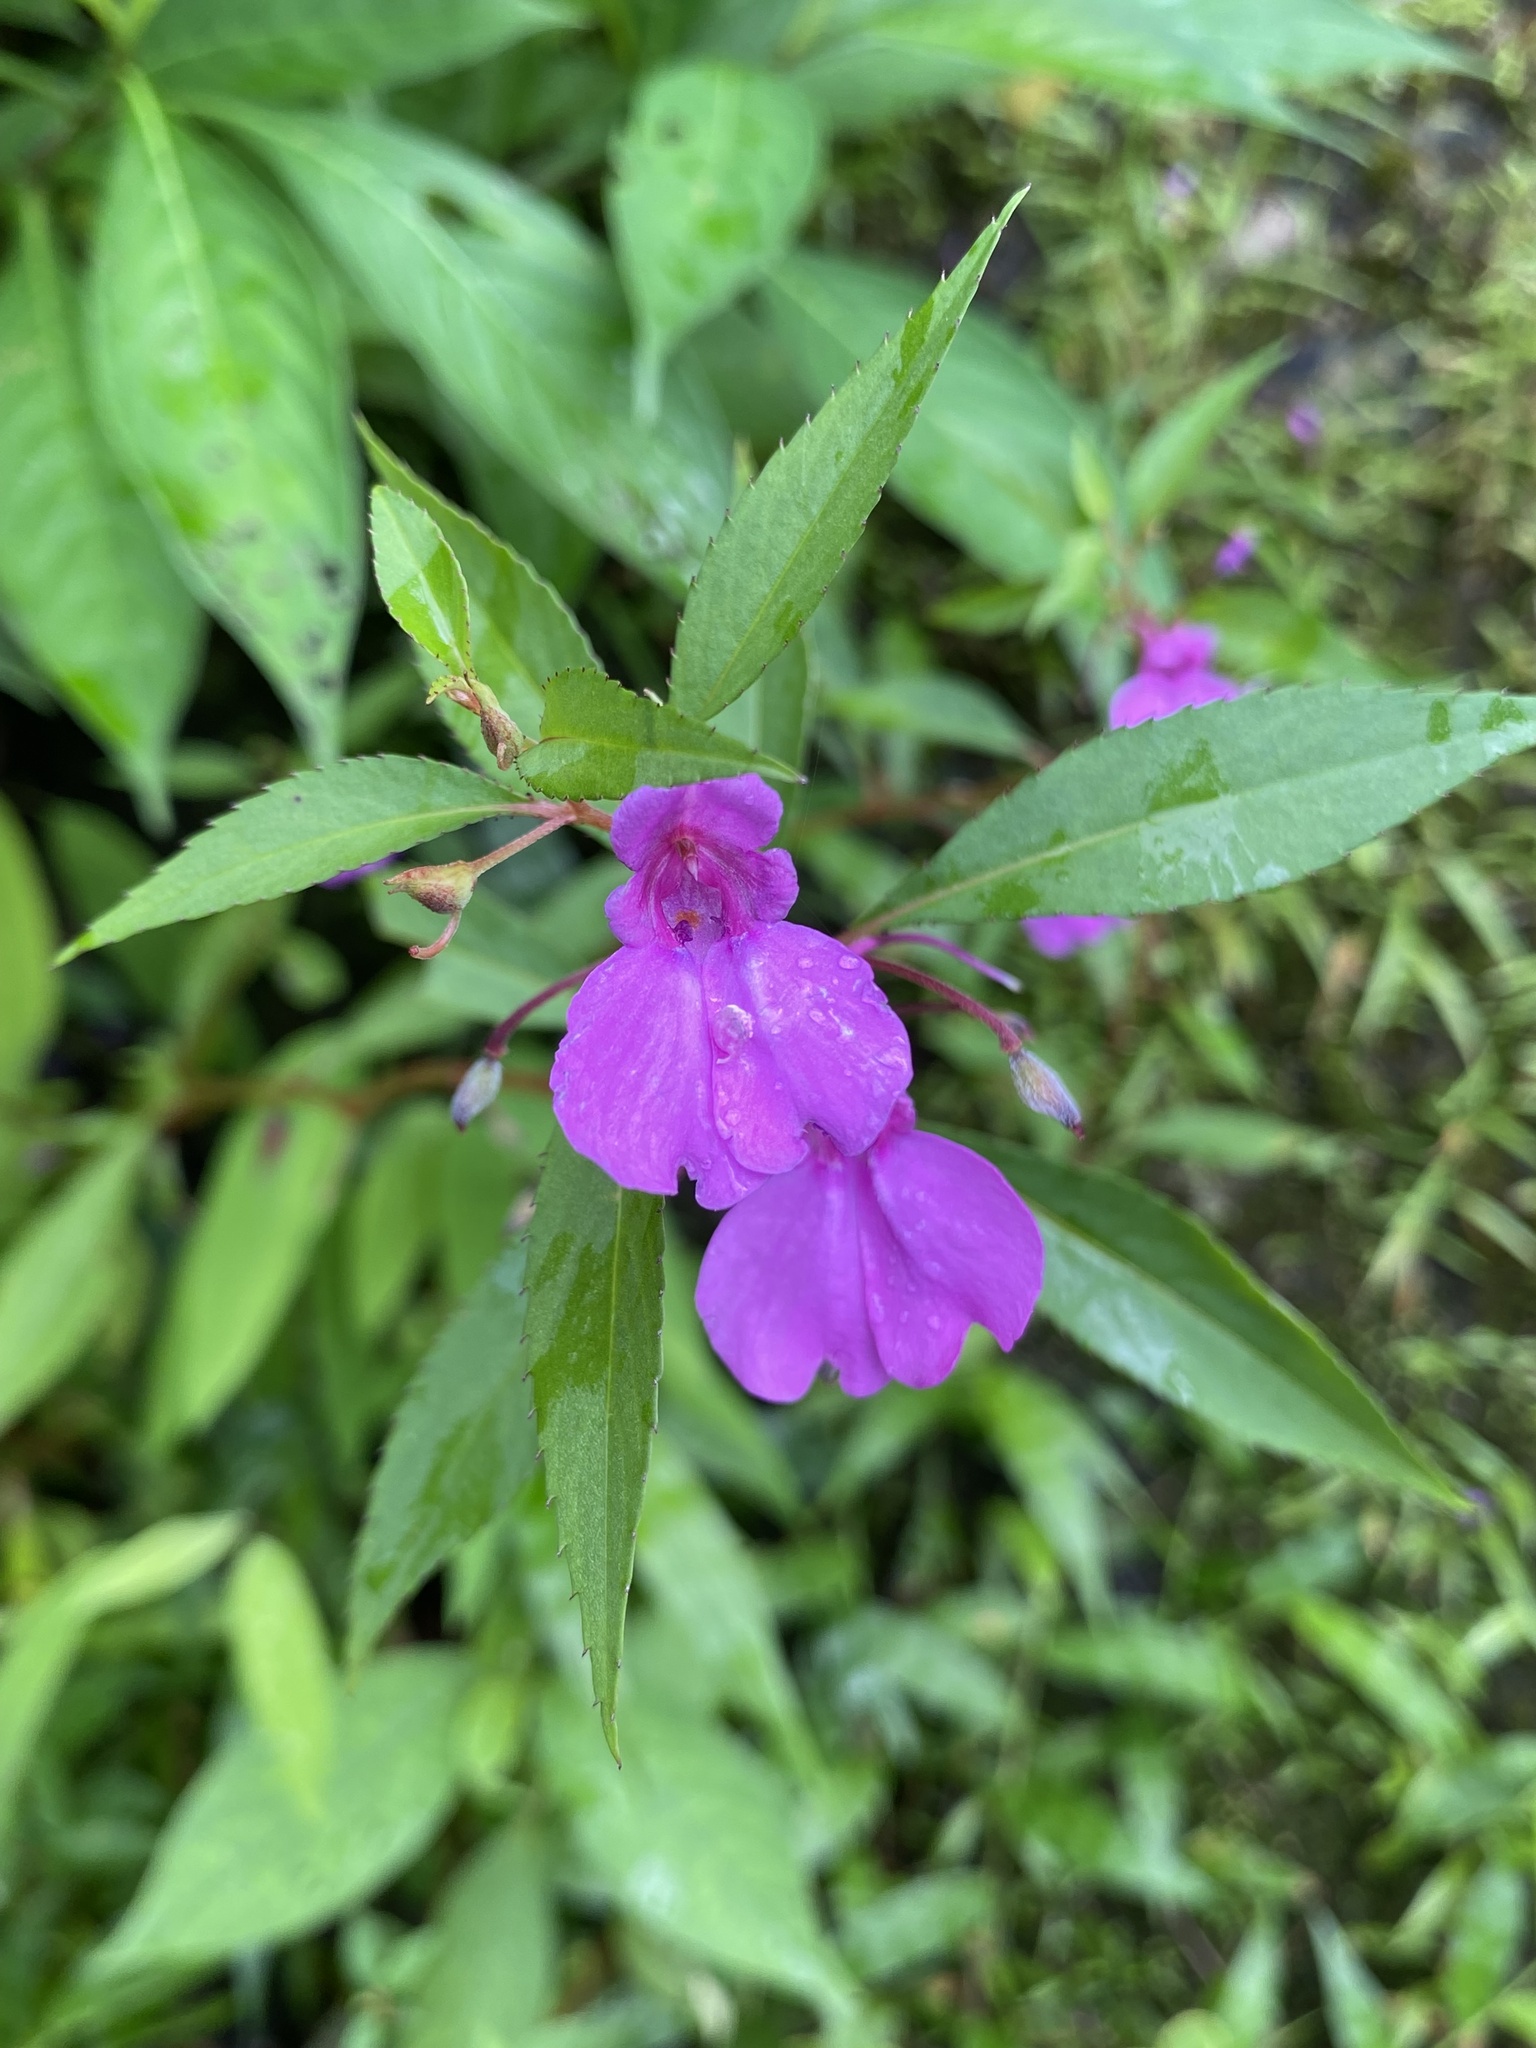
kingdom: Plantae
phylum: Tracheophyta
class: Magnoliopsida
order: Ericales
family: Balsaminaceae
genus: Impatiens
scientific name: Impatiens balsamina
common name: Balsam
